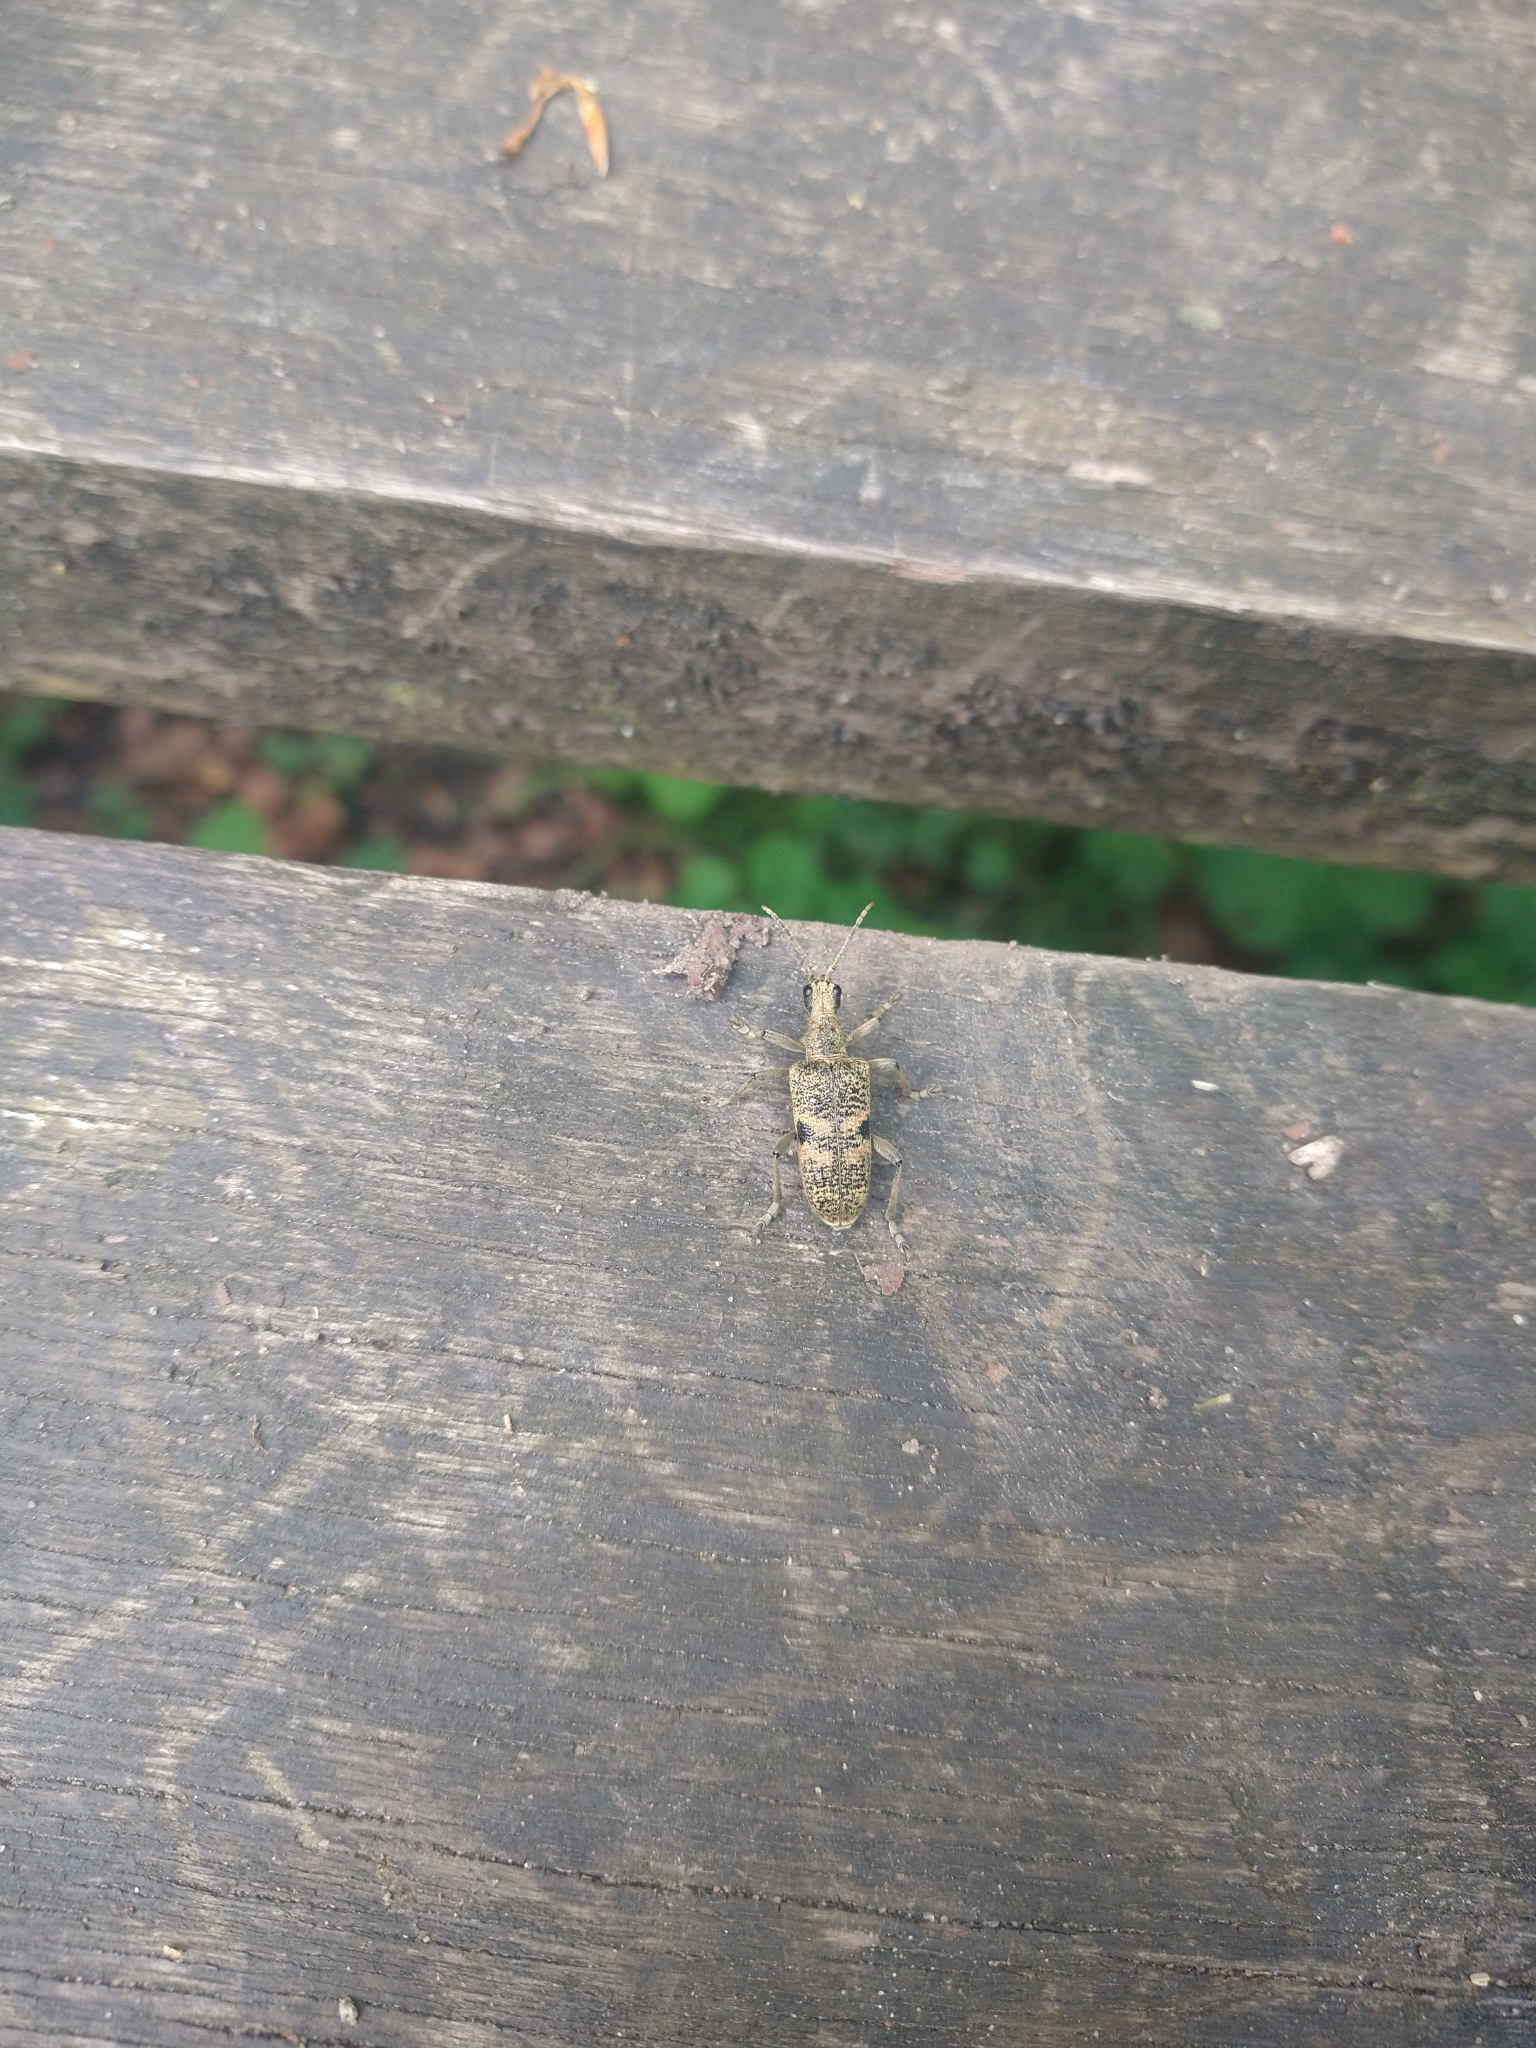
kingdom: Animalia
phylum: Arthropoda
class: Insecta
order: Coleoptera
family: Cerambycidae
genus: Rhagium
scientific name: Rhagium mordax
